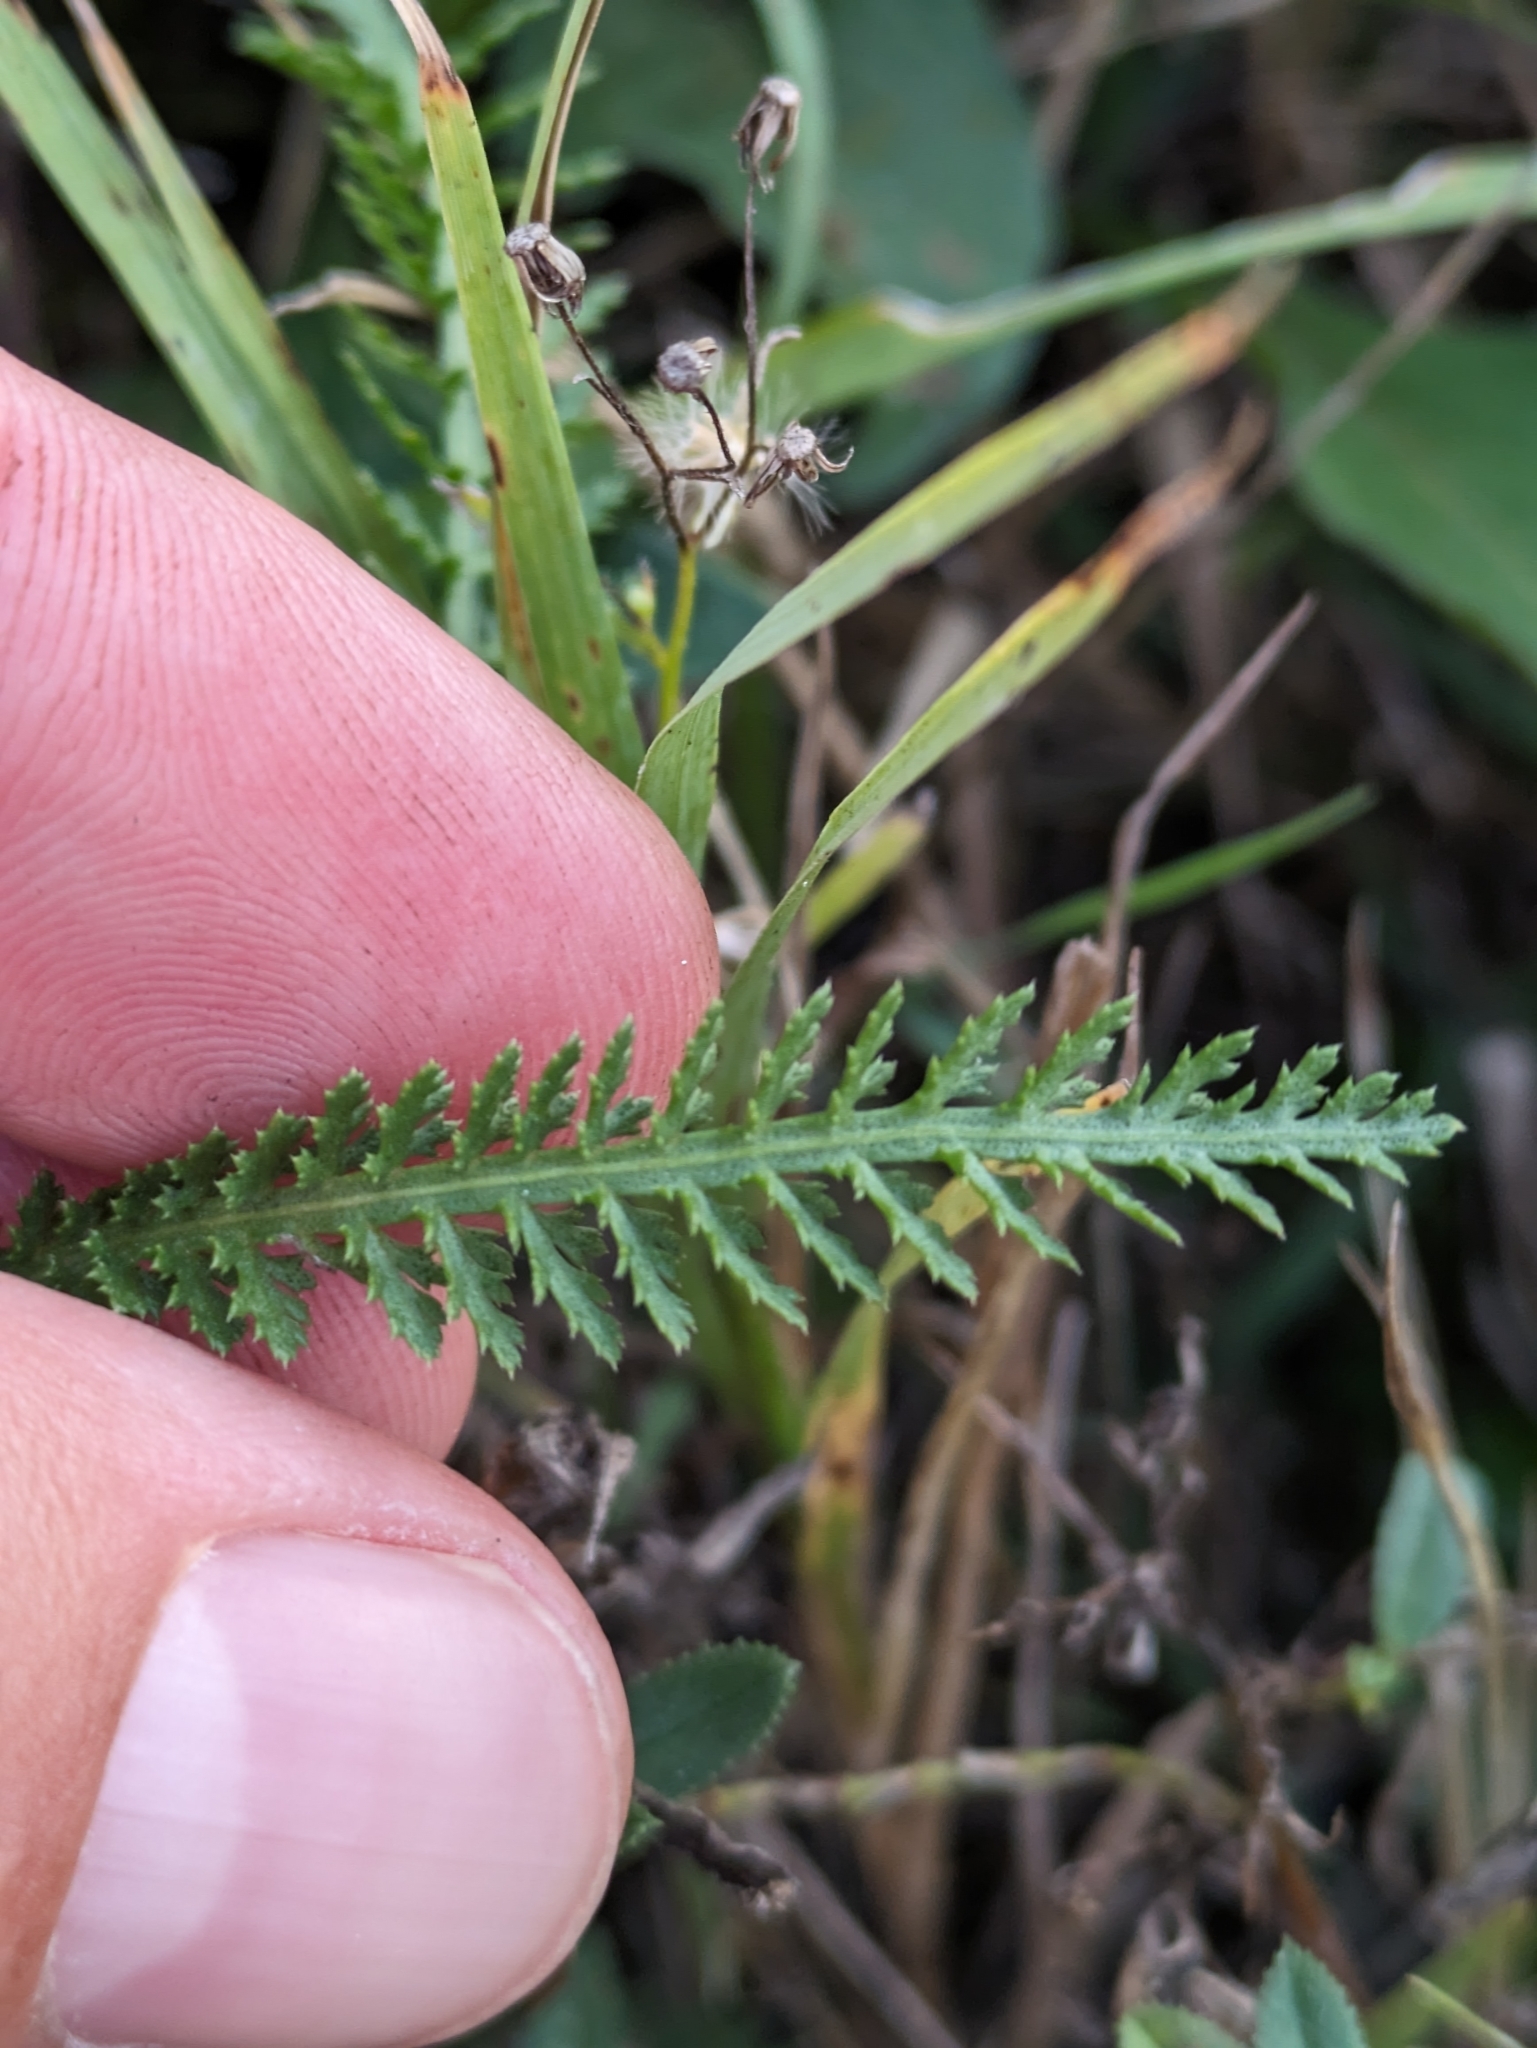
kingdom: Plantae
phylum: Tracheophyta
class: Magnoliopsida
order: Asterales
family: Asteraceae
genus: Achillea
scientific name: Achillea aspleniifolia
